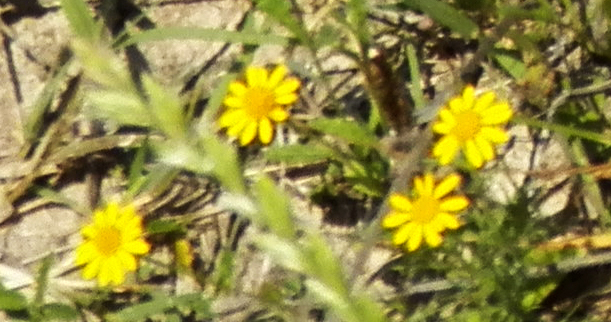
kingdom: Plantae
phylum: Tracheophyta
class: Magnoliopsida
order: Asterales
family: Asteraceae
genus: Thymophylla
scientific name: Thymophylla tenuiloba
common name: Dahlberg's daisy
